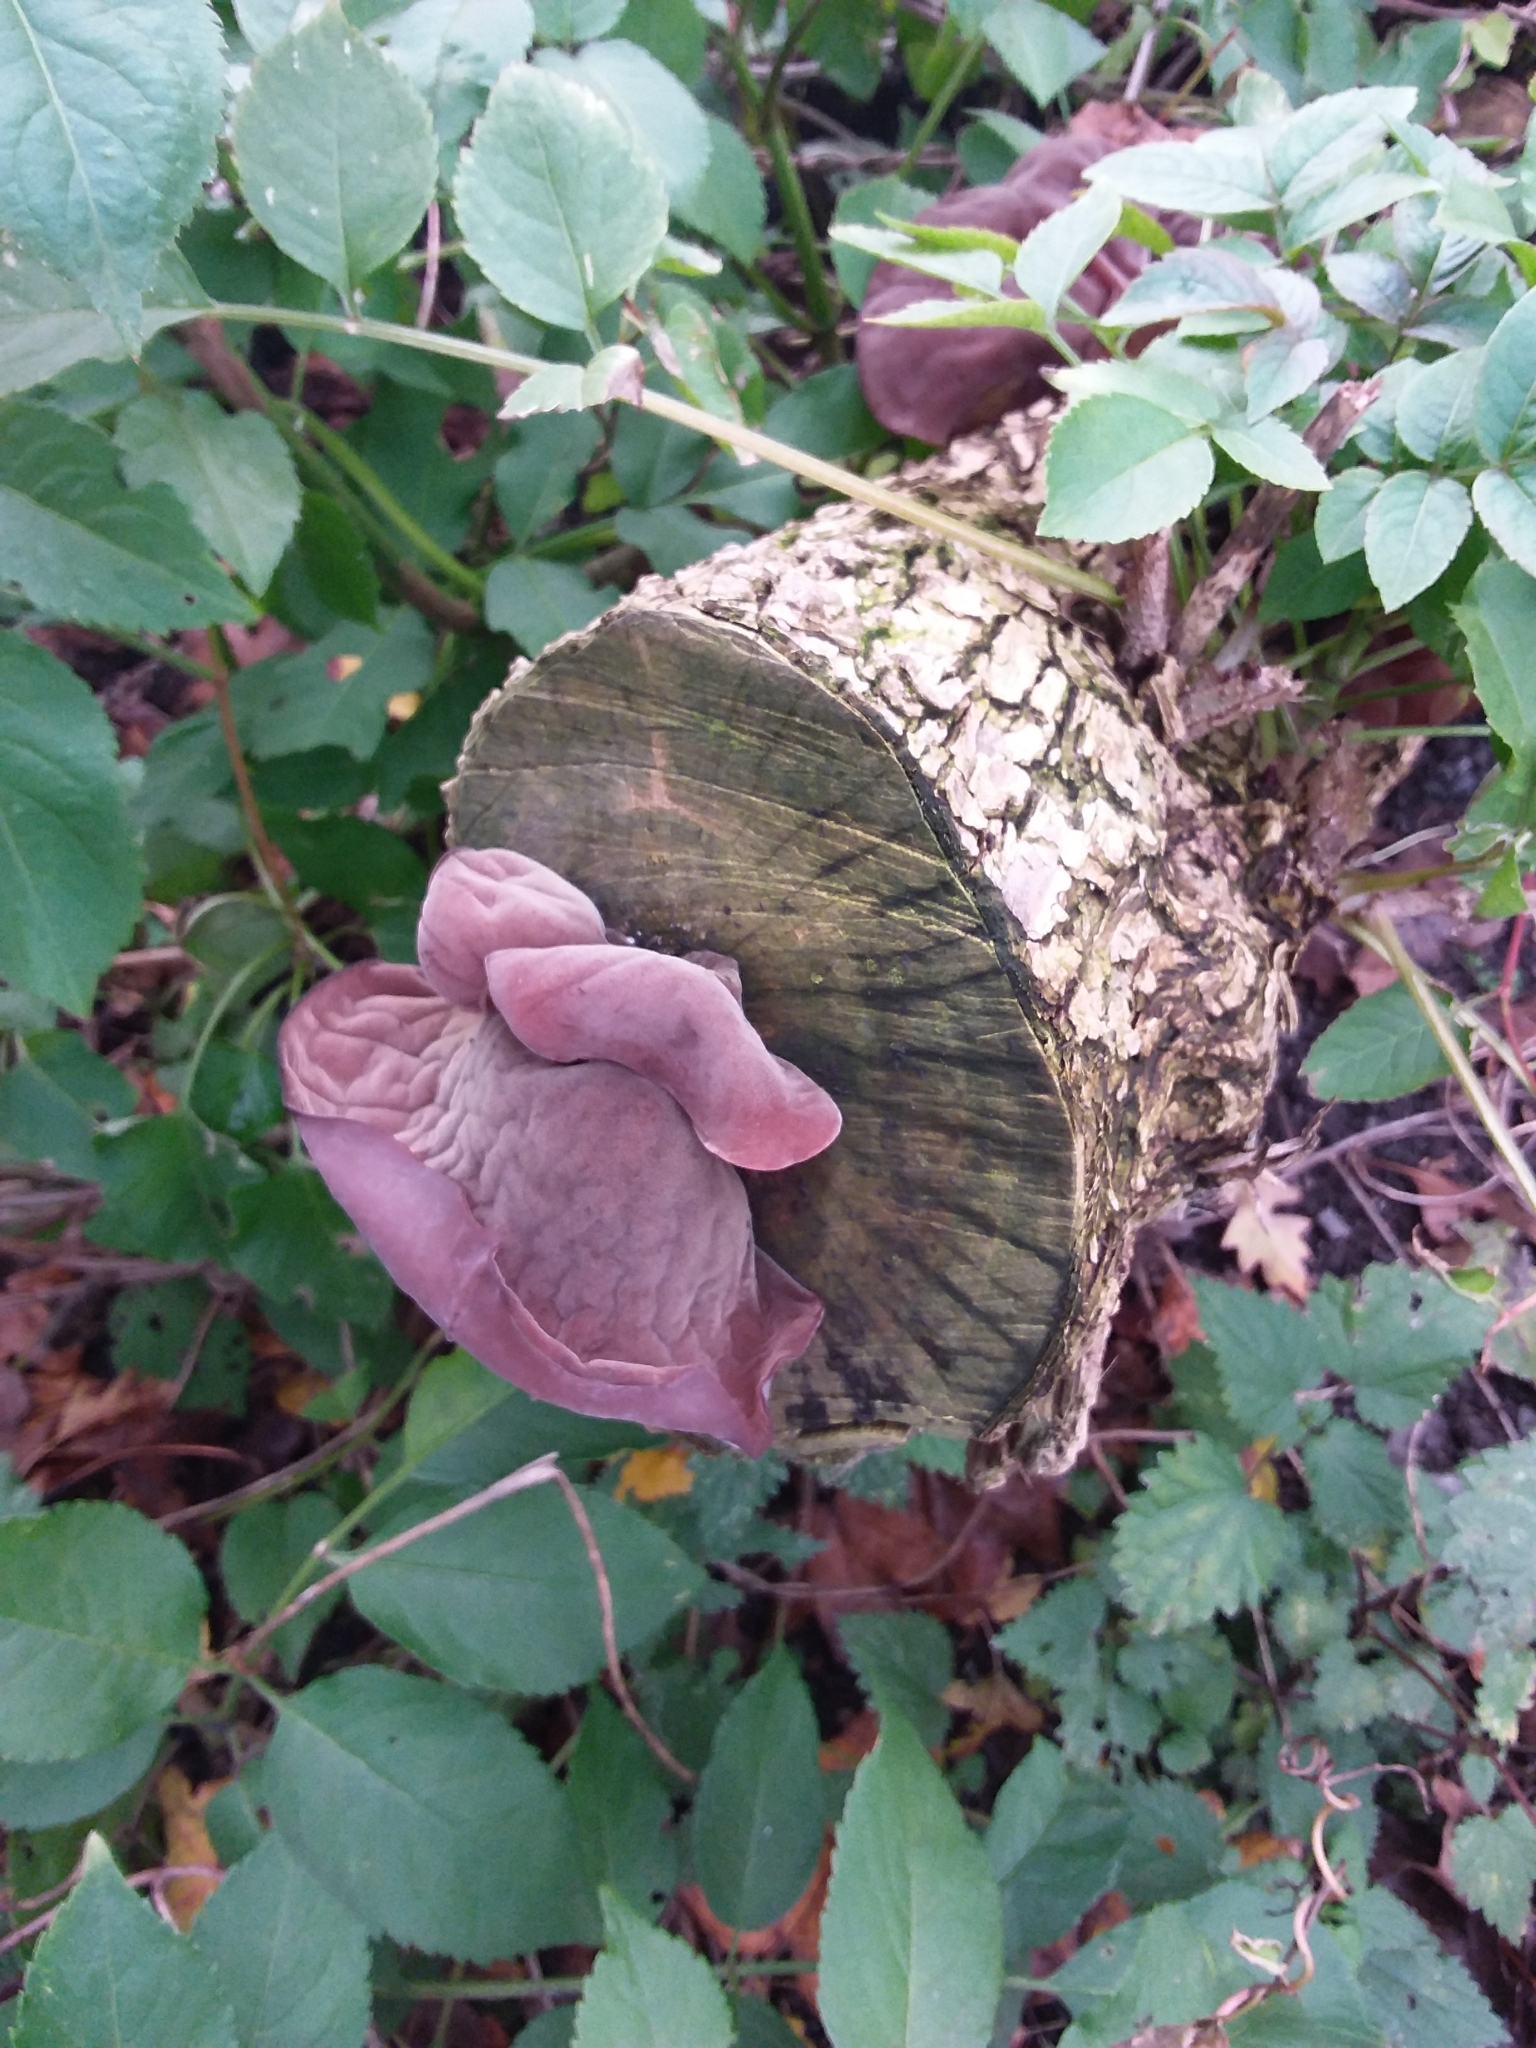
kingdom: Fungi
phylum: Basidiomycota
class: Agaricomycetes
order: Auriculariales
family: Auriculariaceae
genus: Auricularia
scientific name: Auricularia auricula-judae
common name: Jelly ear
